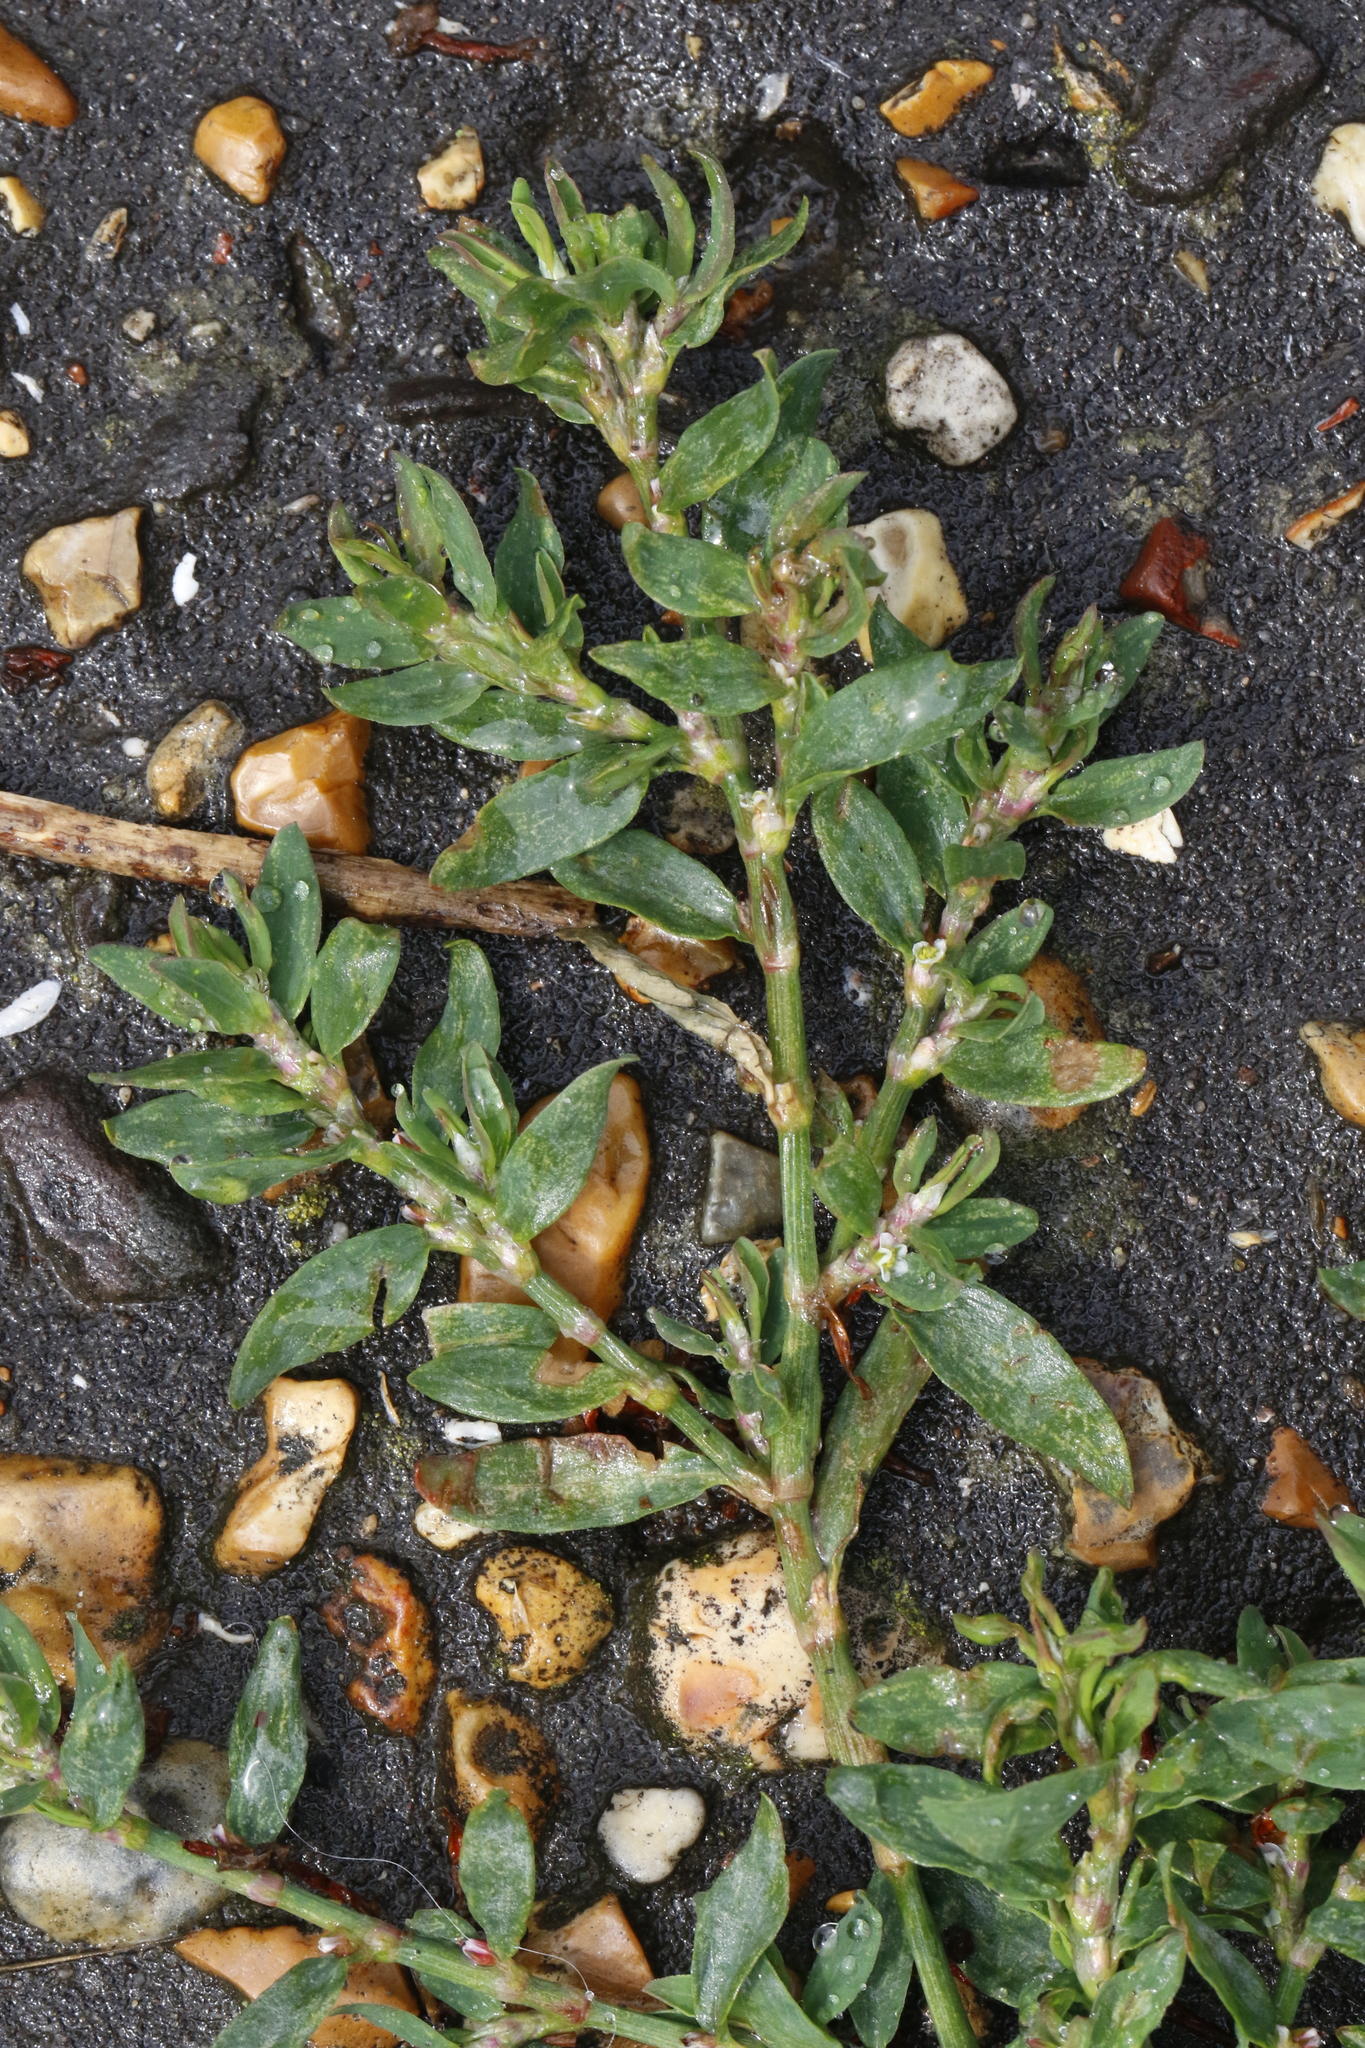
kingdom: Plantae
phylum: Tracheophyta
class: Magnoliopsida
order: Caryophyllales
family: Polygonaceae
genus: Polygonum
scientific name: Polygonum aviculare
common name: Prostrate knotweed
